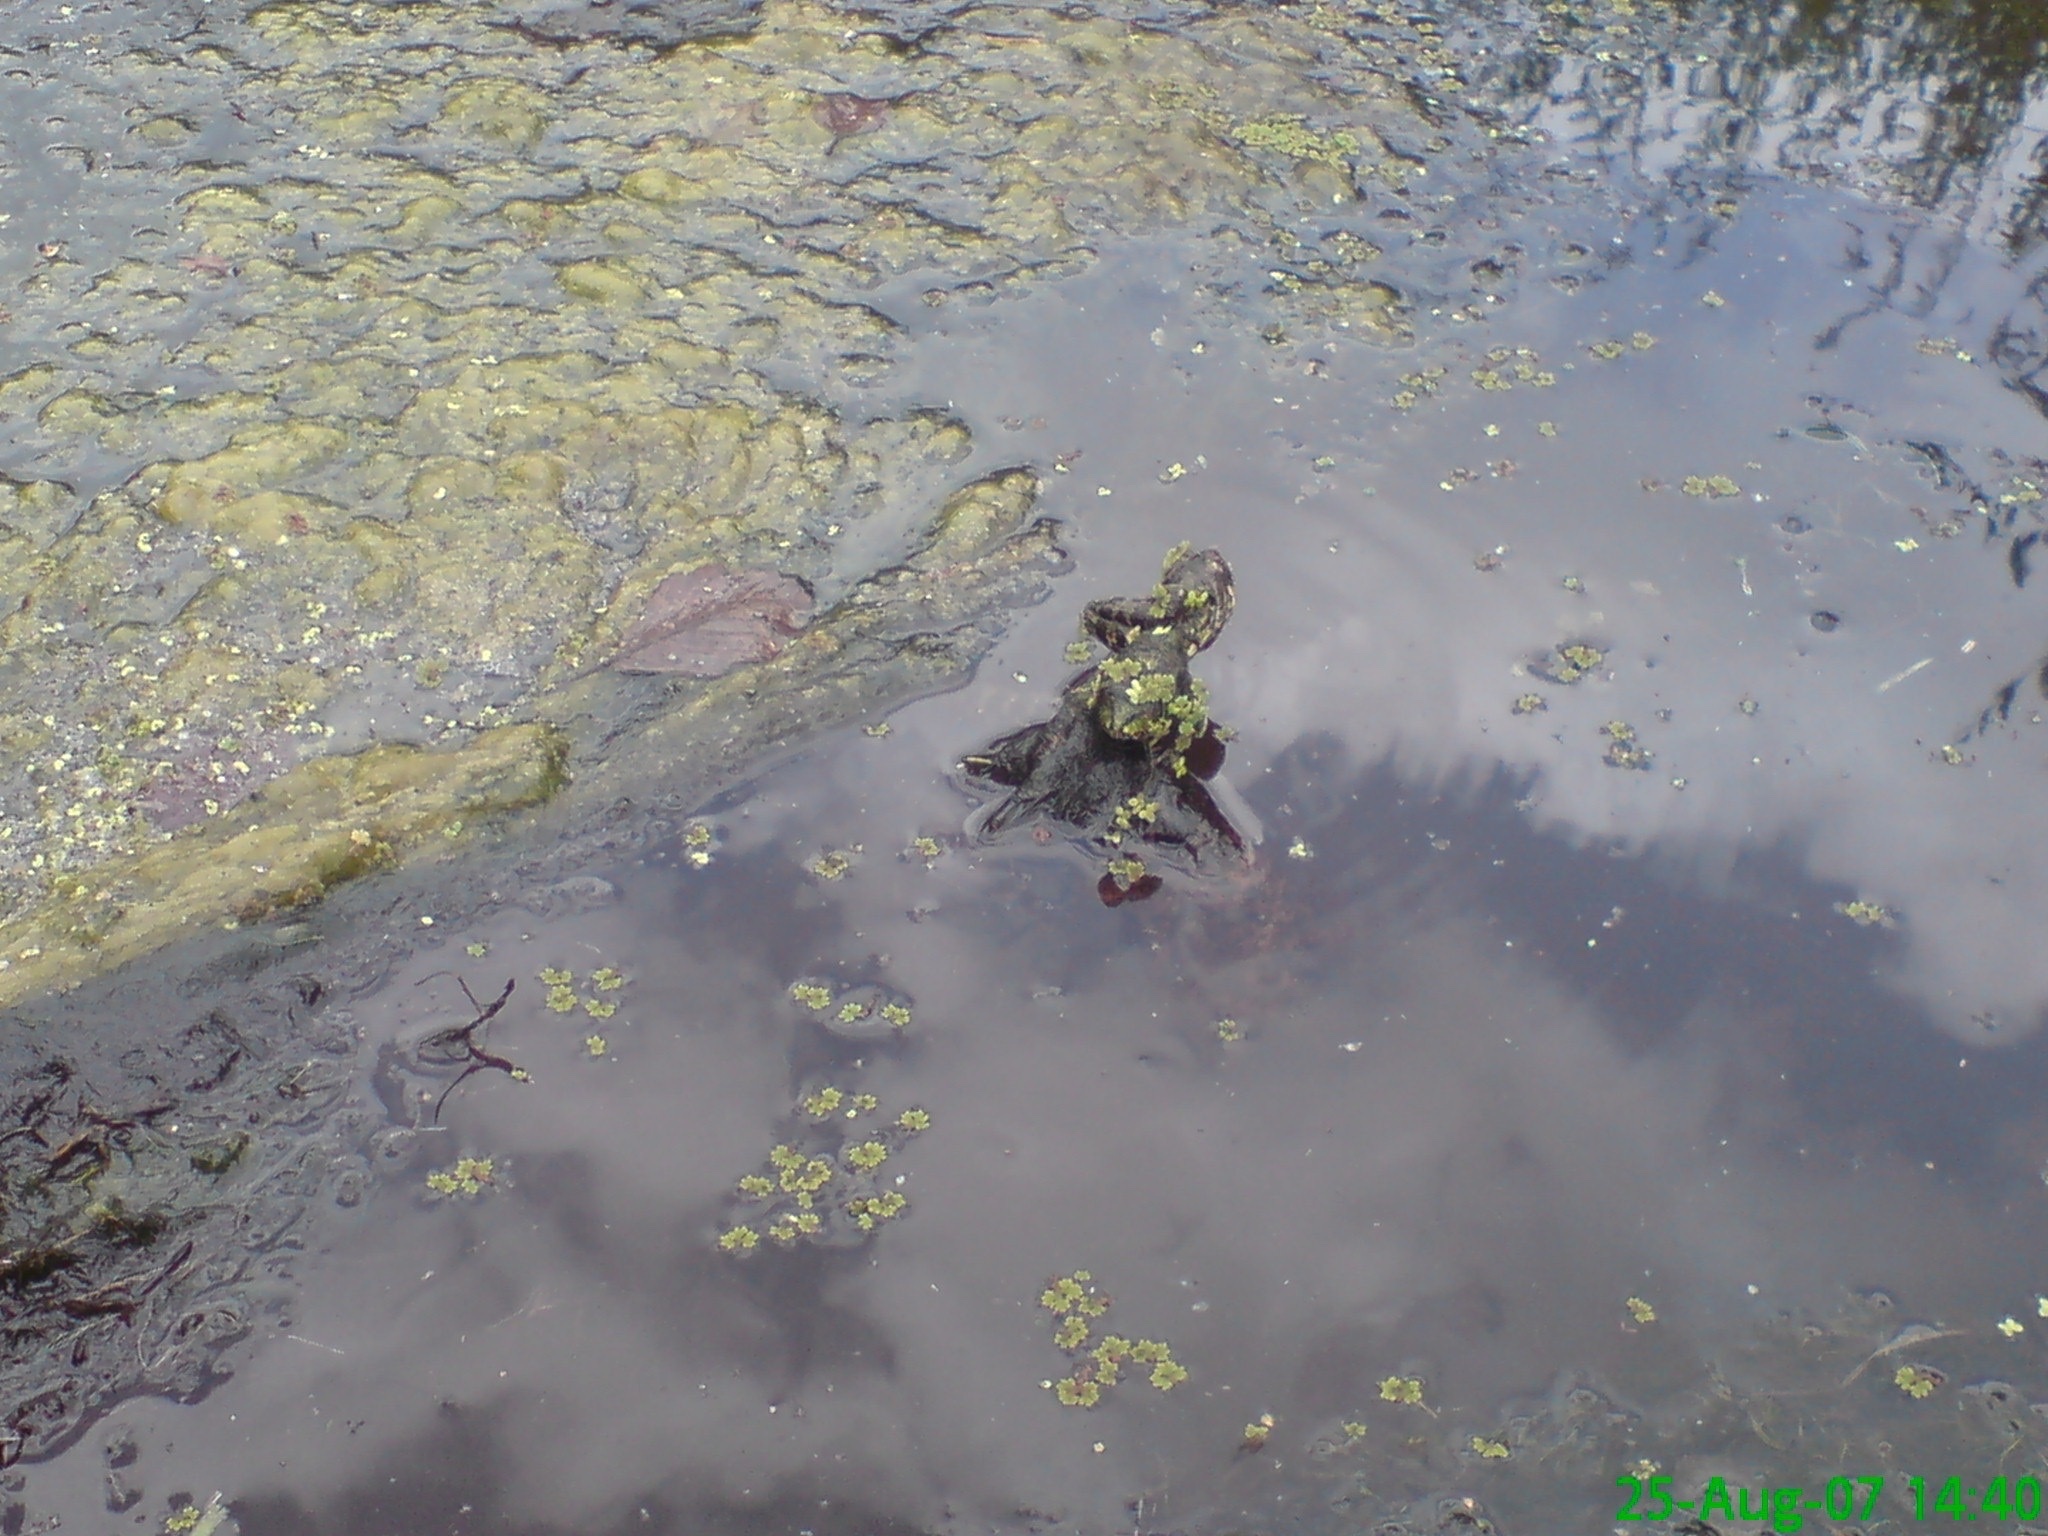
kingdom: Animalia
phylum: Chordata
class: Amphibia
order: Anura
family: Ranidae
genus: Pelophylax
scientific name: Pelophylax perezi
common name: Perez's frog
